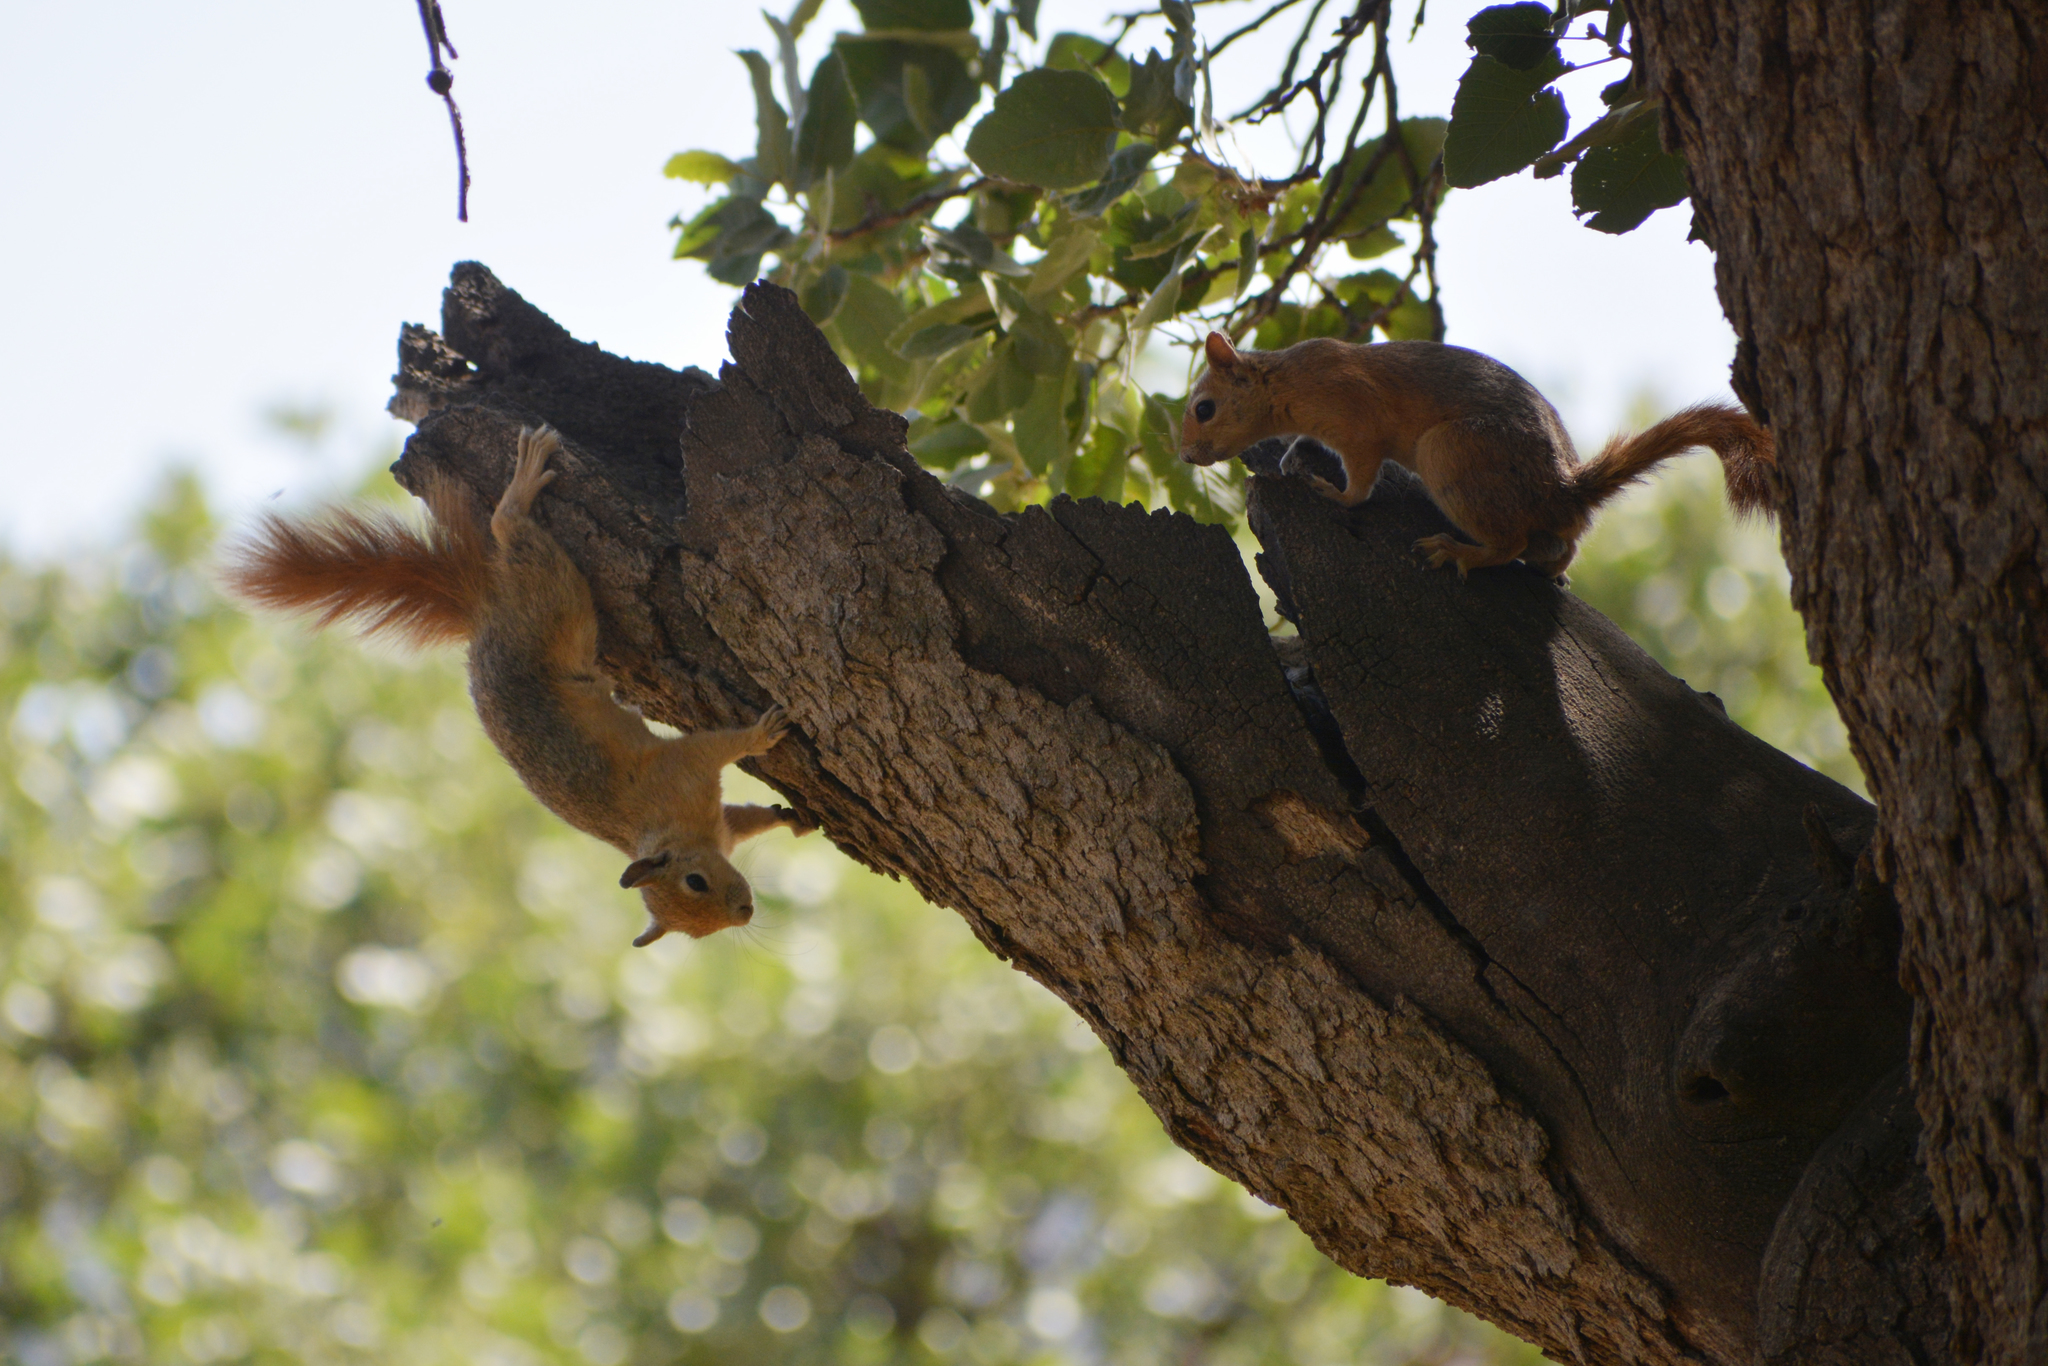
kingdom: Animalia
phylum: Chordata
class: Mammalia
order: Rodentia
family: Sciuridae
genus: Sciurus
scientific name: Sciurus anomalus
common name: Caucasian squirrel
